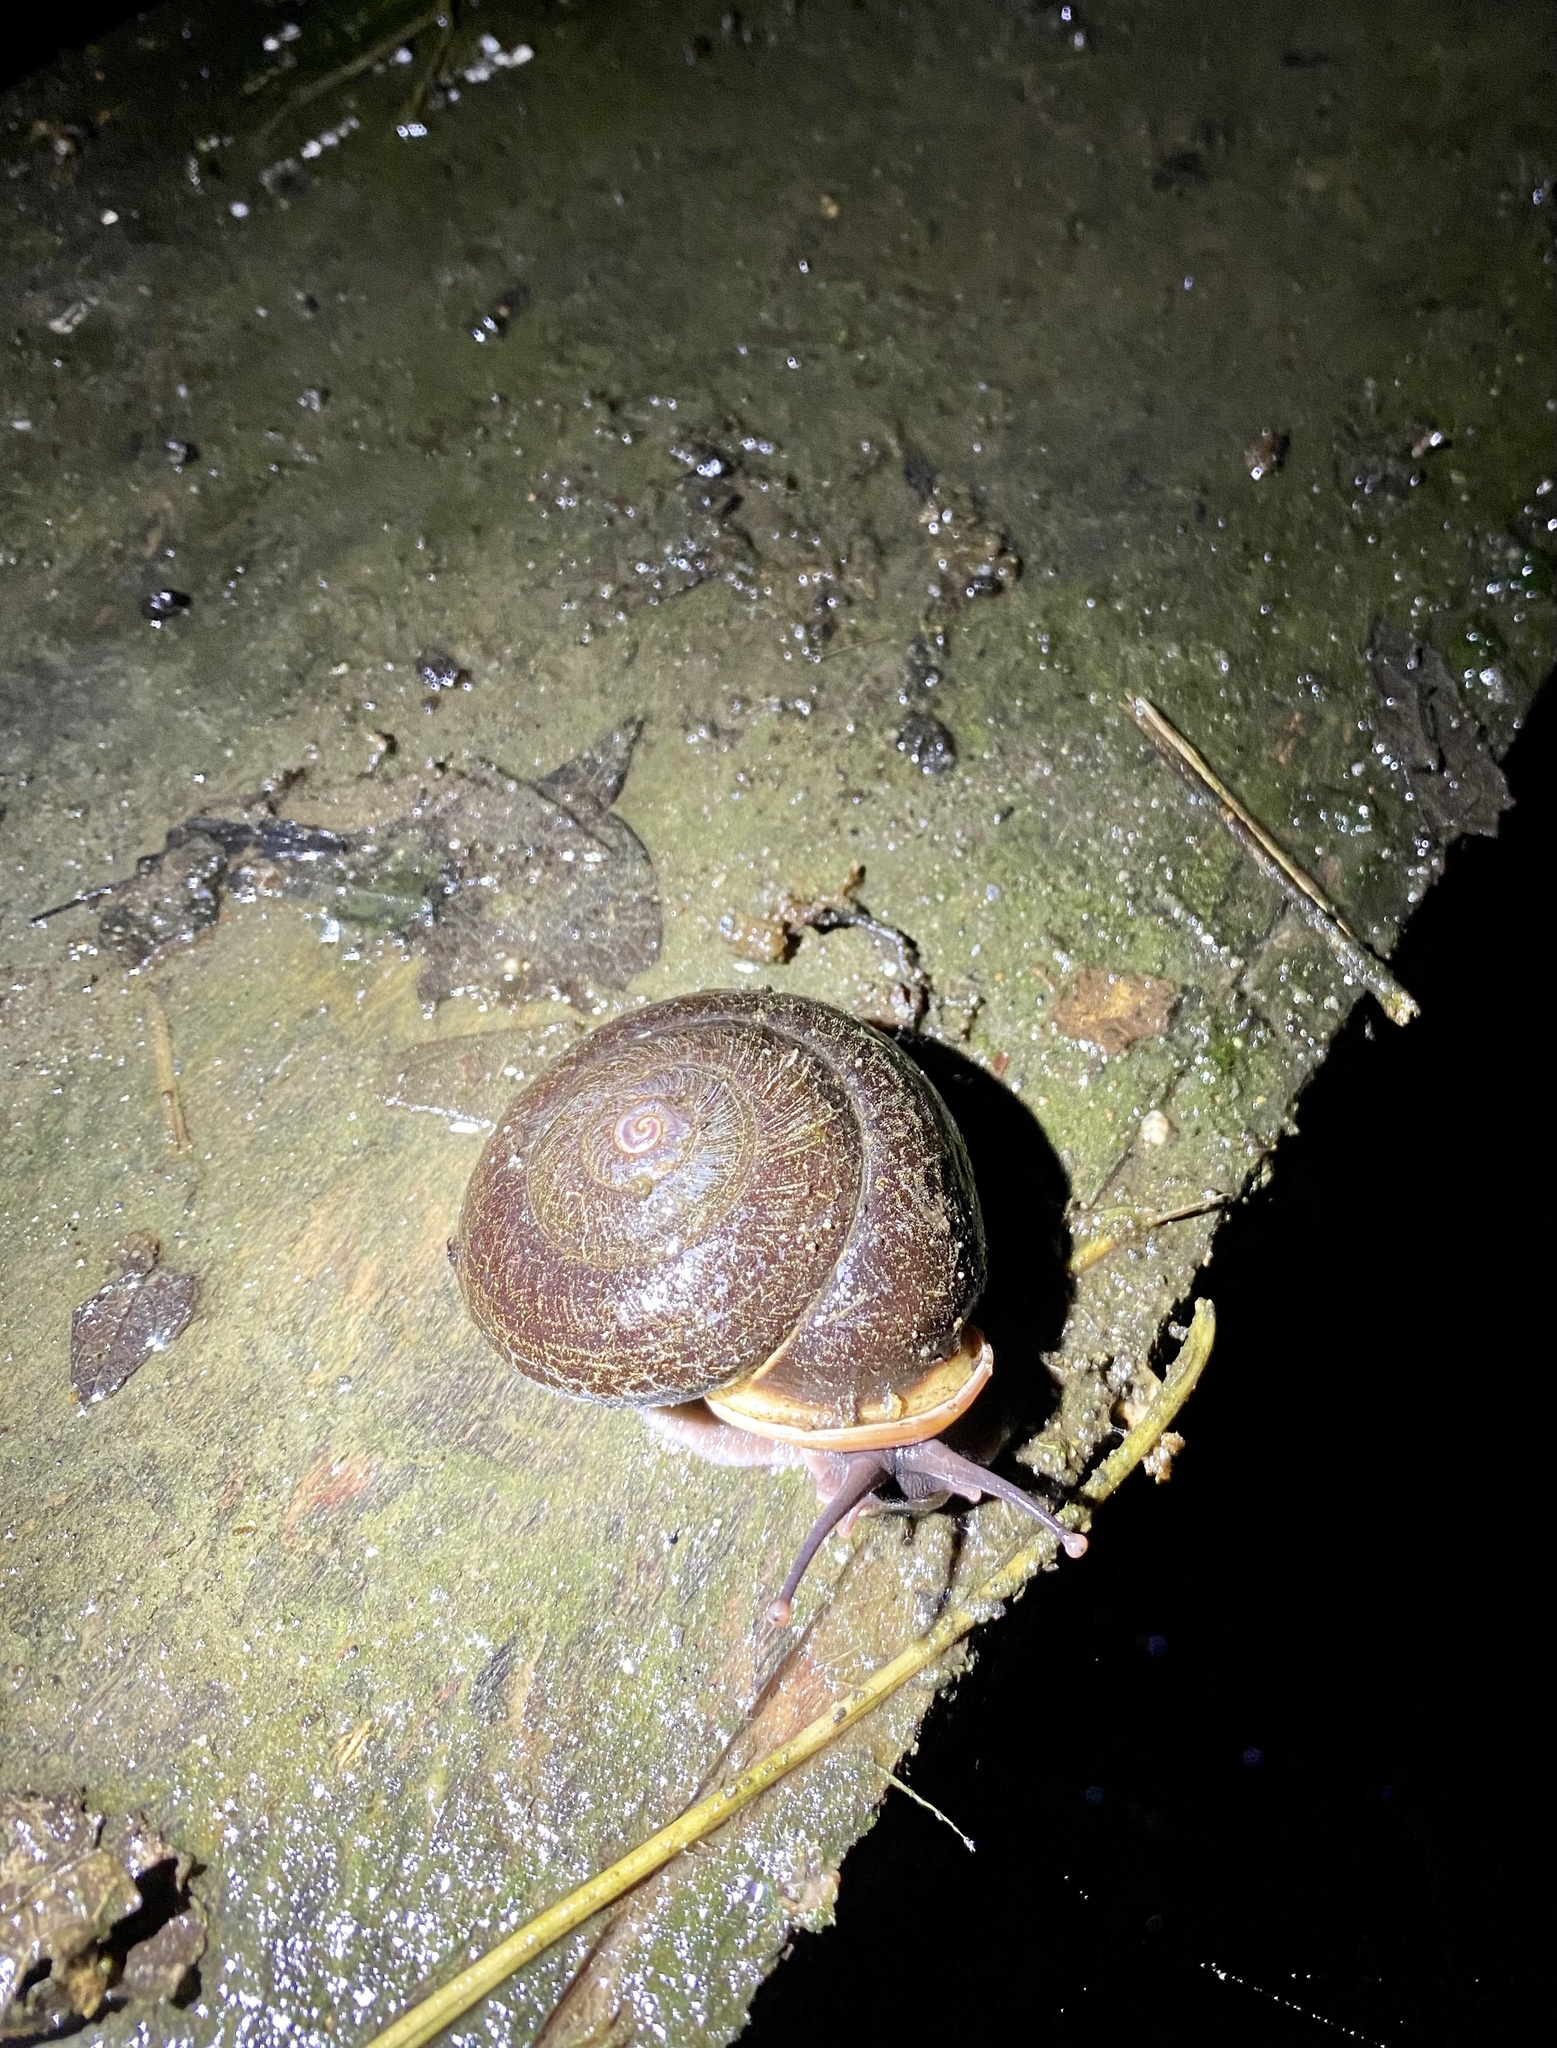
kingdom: Animalia
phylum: Mollusca
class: Gastropoda
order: Stylommatophora
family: Labyrinthidae
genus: Isomeria
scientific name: Isomeria
